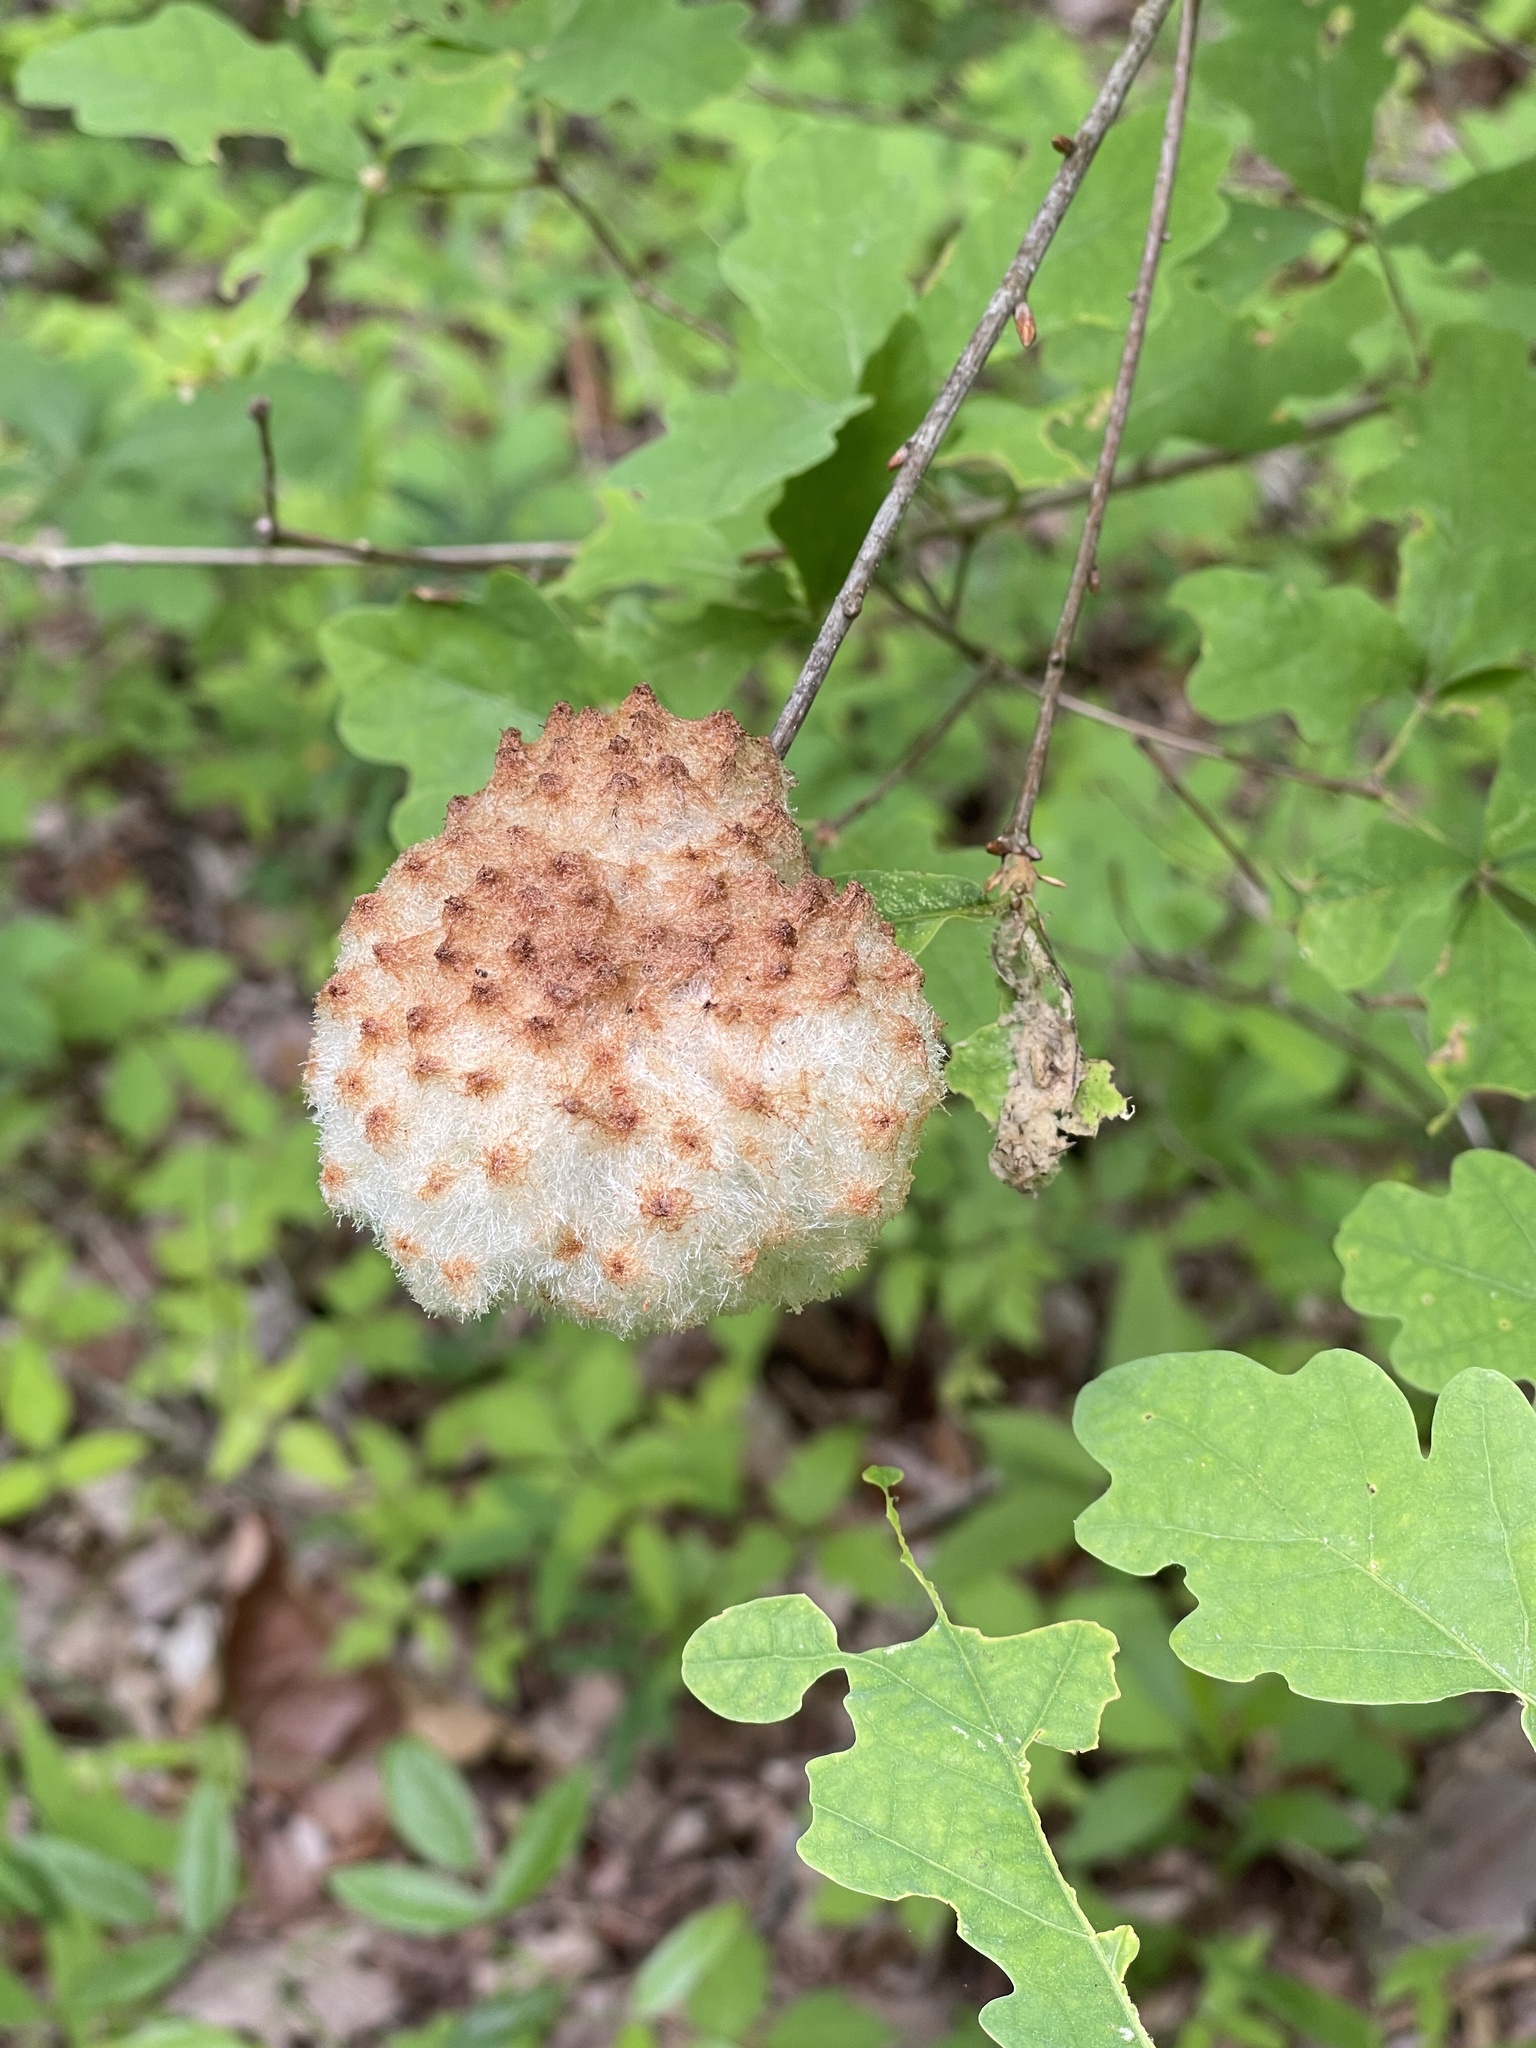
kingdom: Animalia
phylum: Arthropoda
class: Insecta
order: Hymenoptera
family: Cynipidae
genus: Callirhytis
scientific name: Callirhytis
